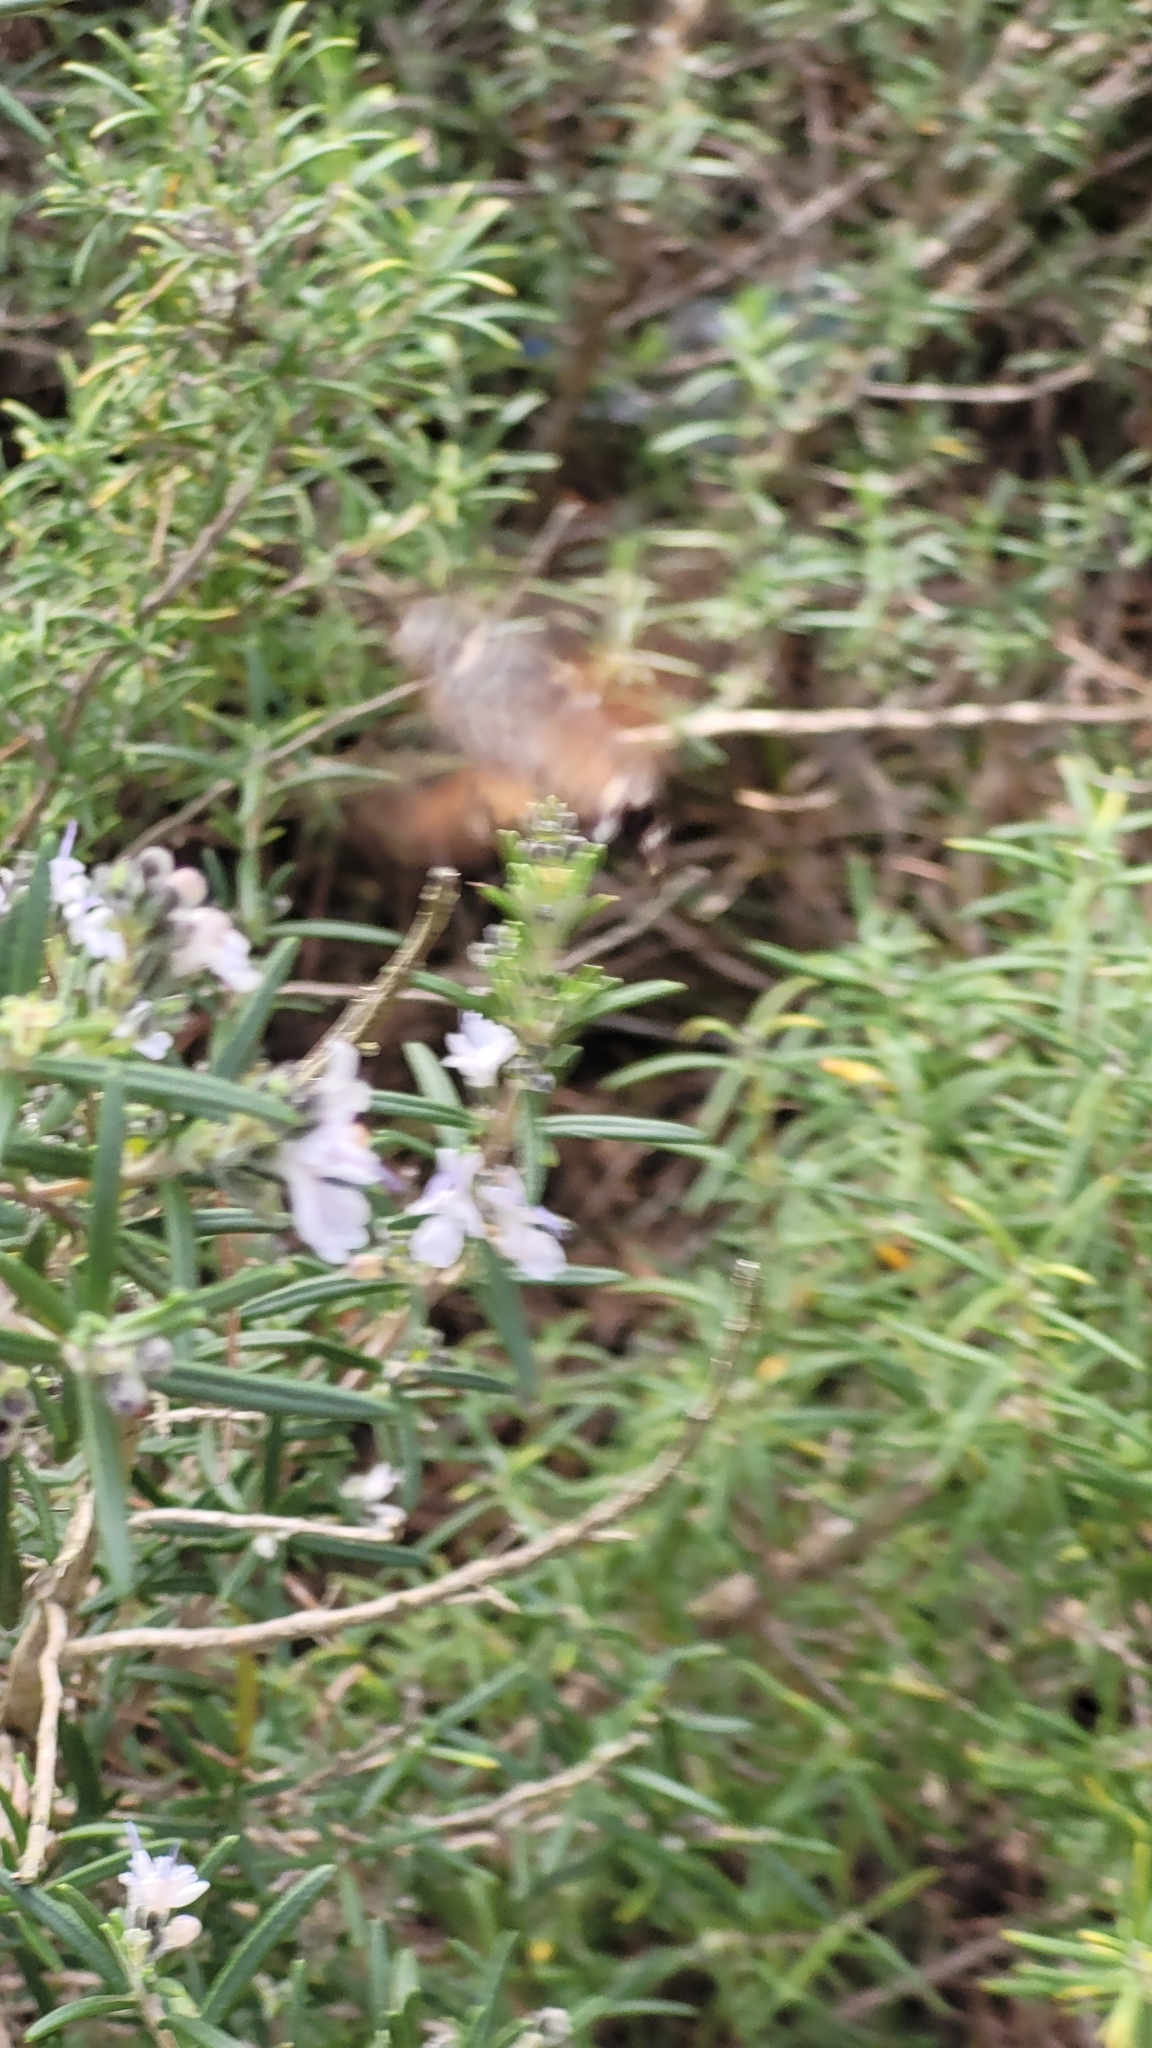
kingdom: Animalia
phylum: Arthropoda
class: Insecta
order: Lepidoptera
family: Sphingidae
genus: Macroglossum
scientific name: Macroglossum stellatarum
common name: Humming-bird hawk-moth
